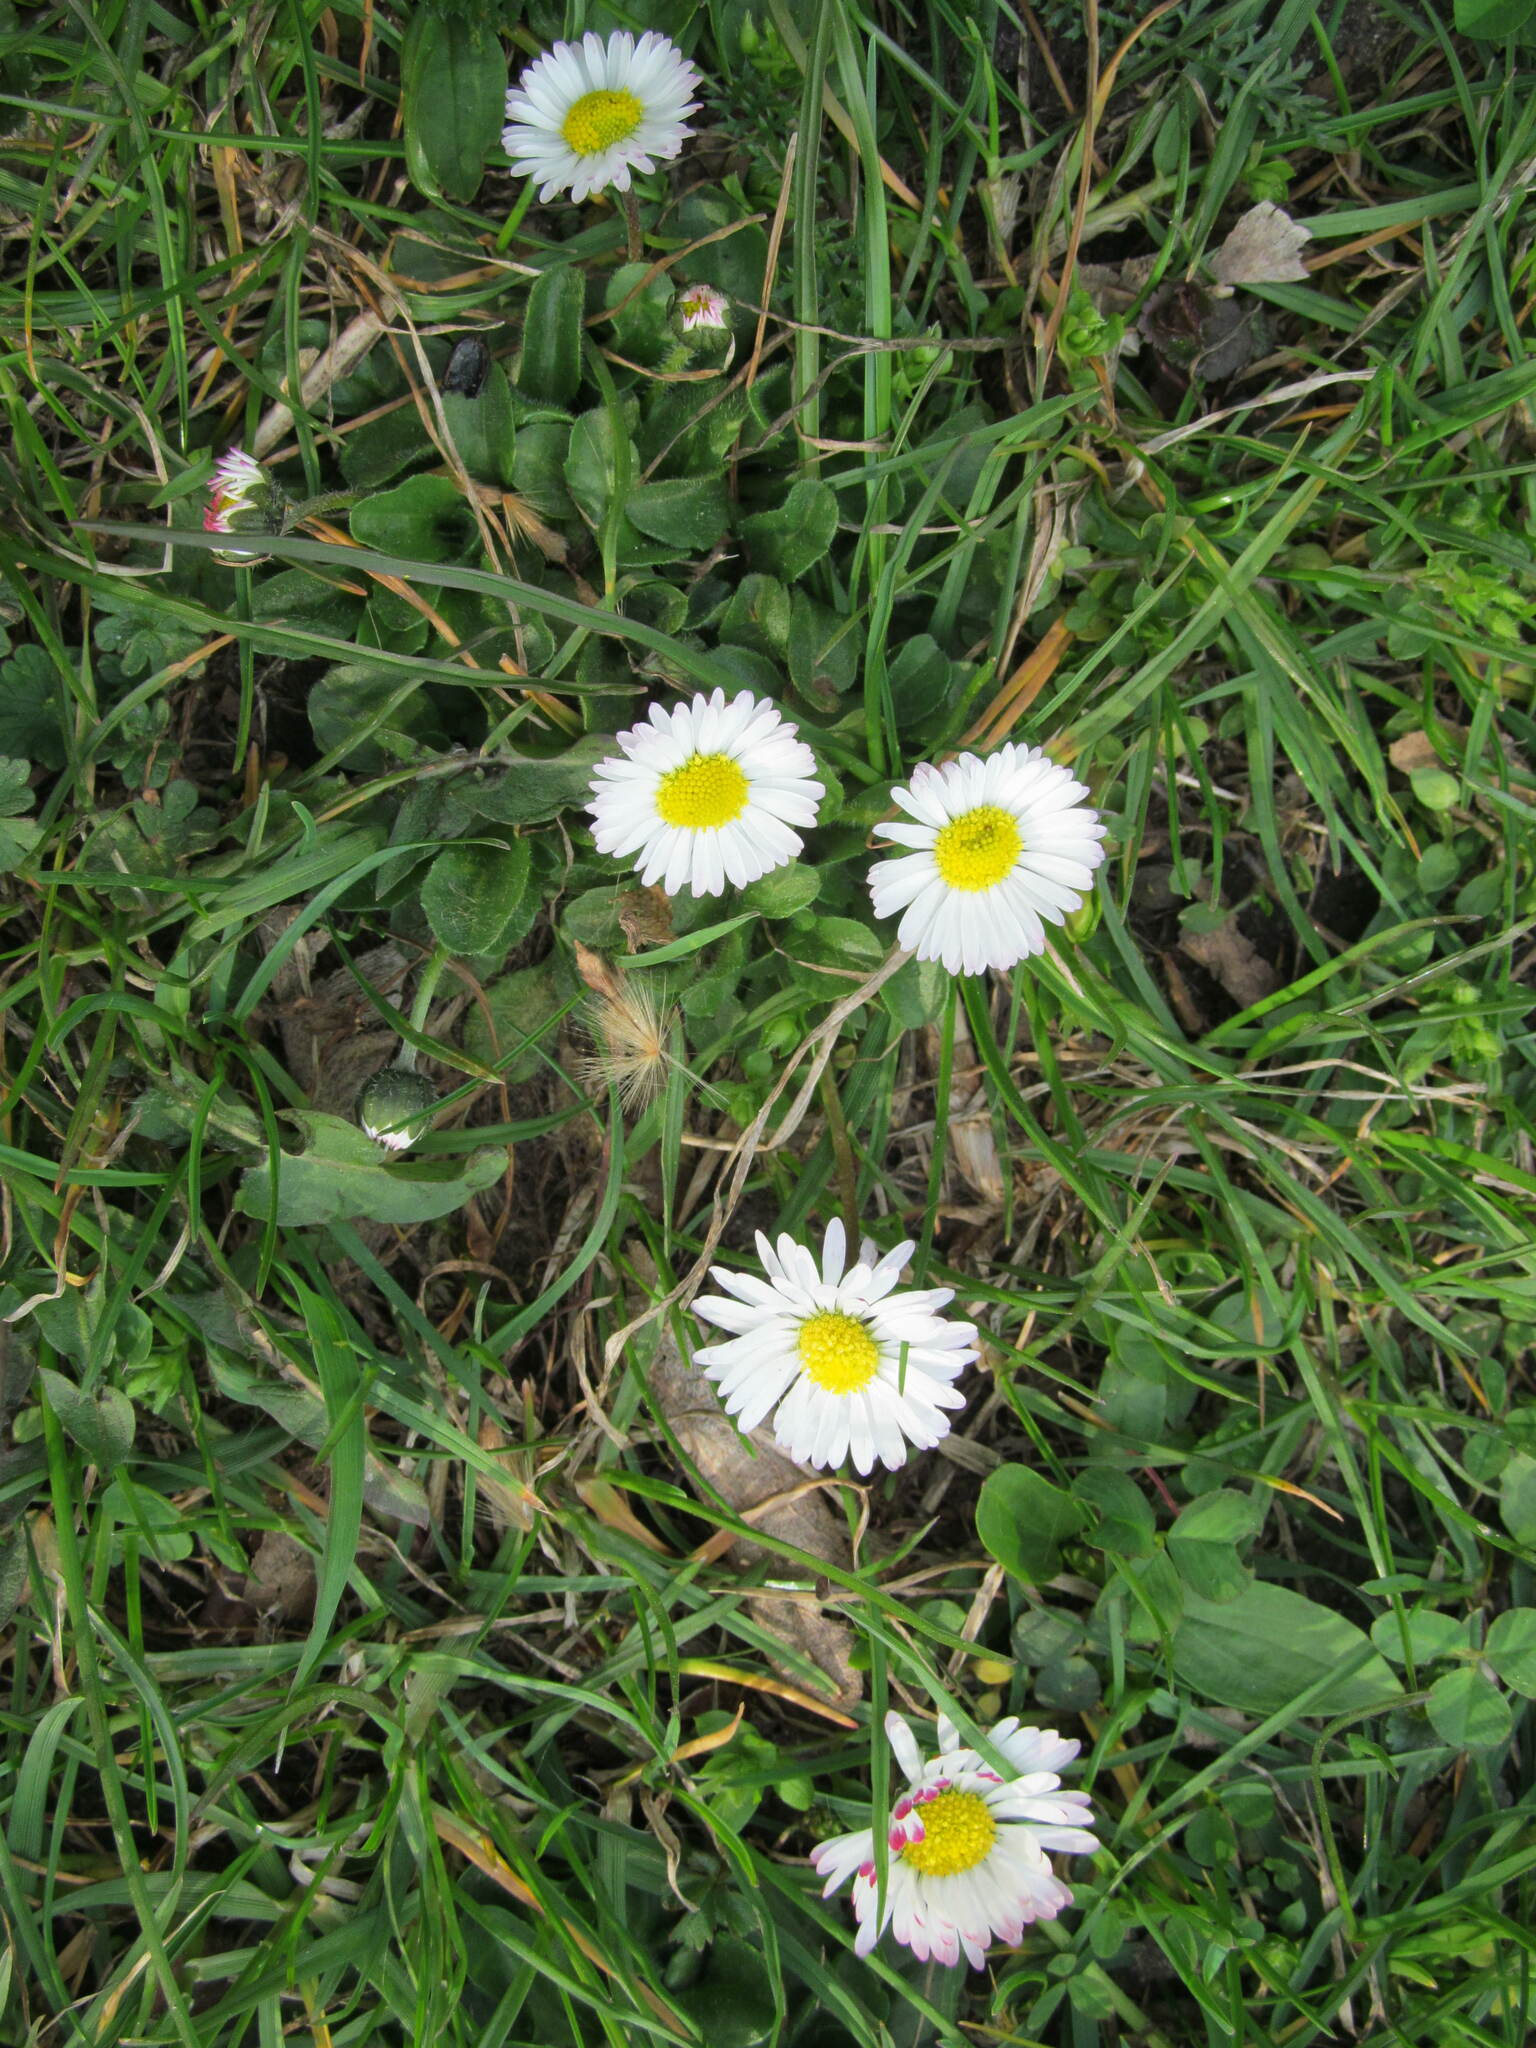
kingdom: Plantae
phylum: Tracheophyta
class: Magnoliopsida
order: Asterales
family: Asteraceae
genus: Bellis
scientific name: Bellis perennis
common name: Lawndaisy
